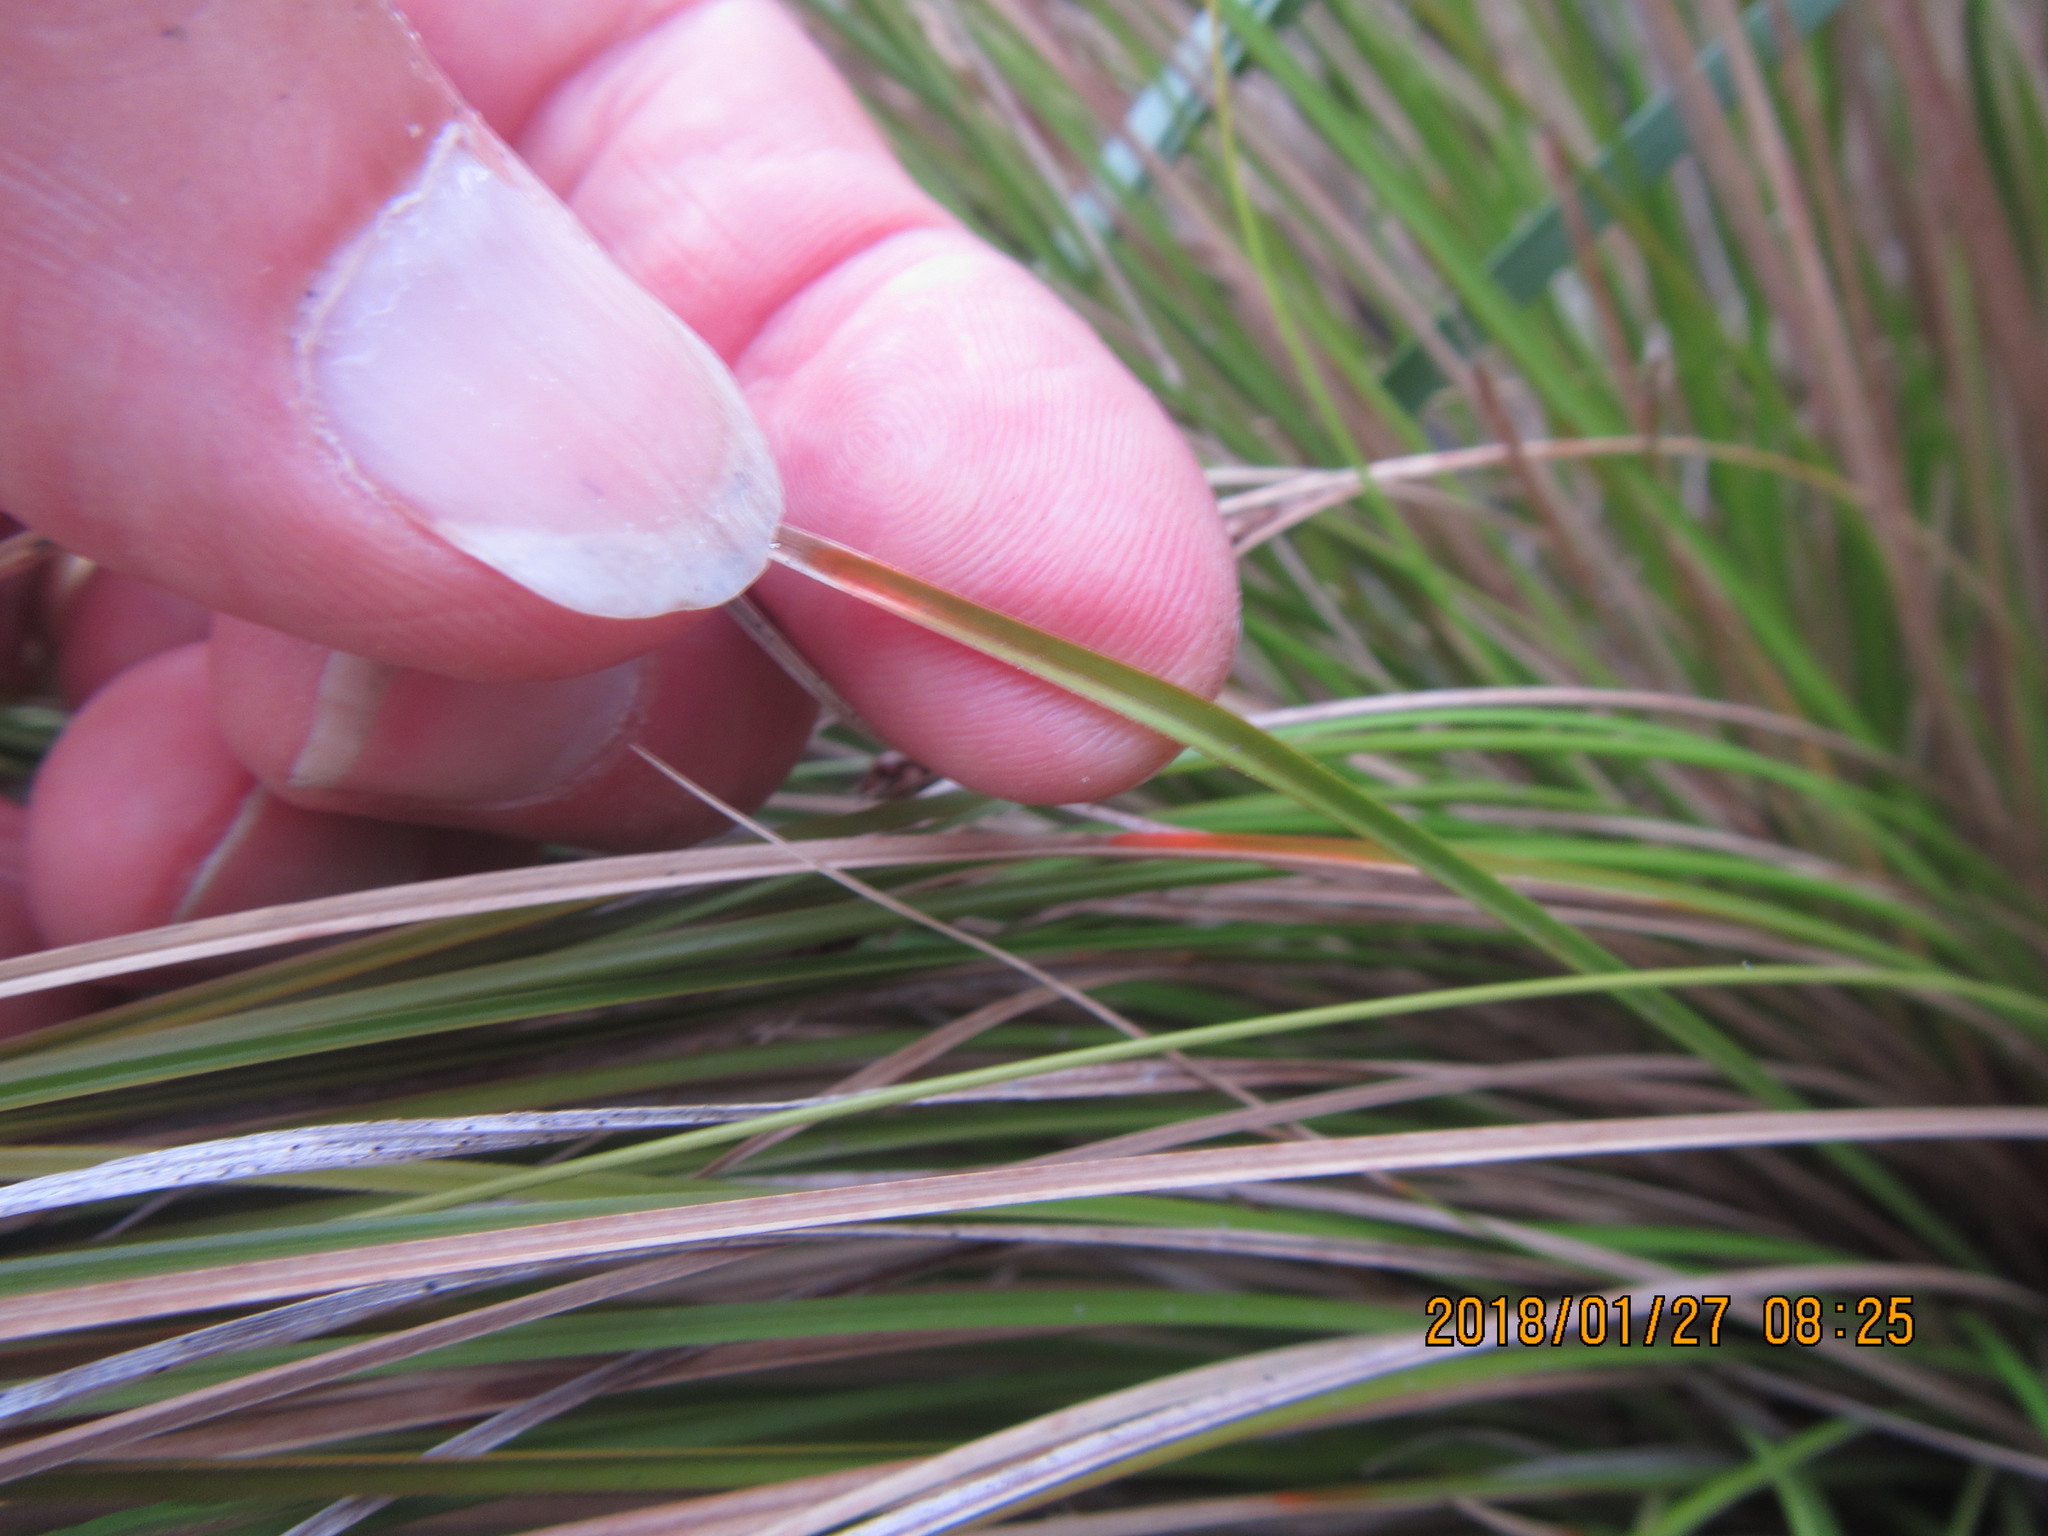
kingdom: Plantae
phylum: Tracheophyta
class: Liliopsida
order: Poales
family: Cyperaceae
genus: Carex
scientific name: Carex testacea
